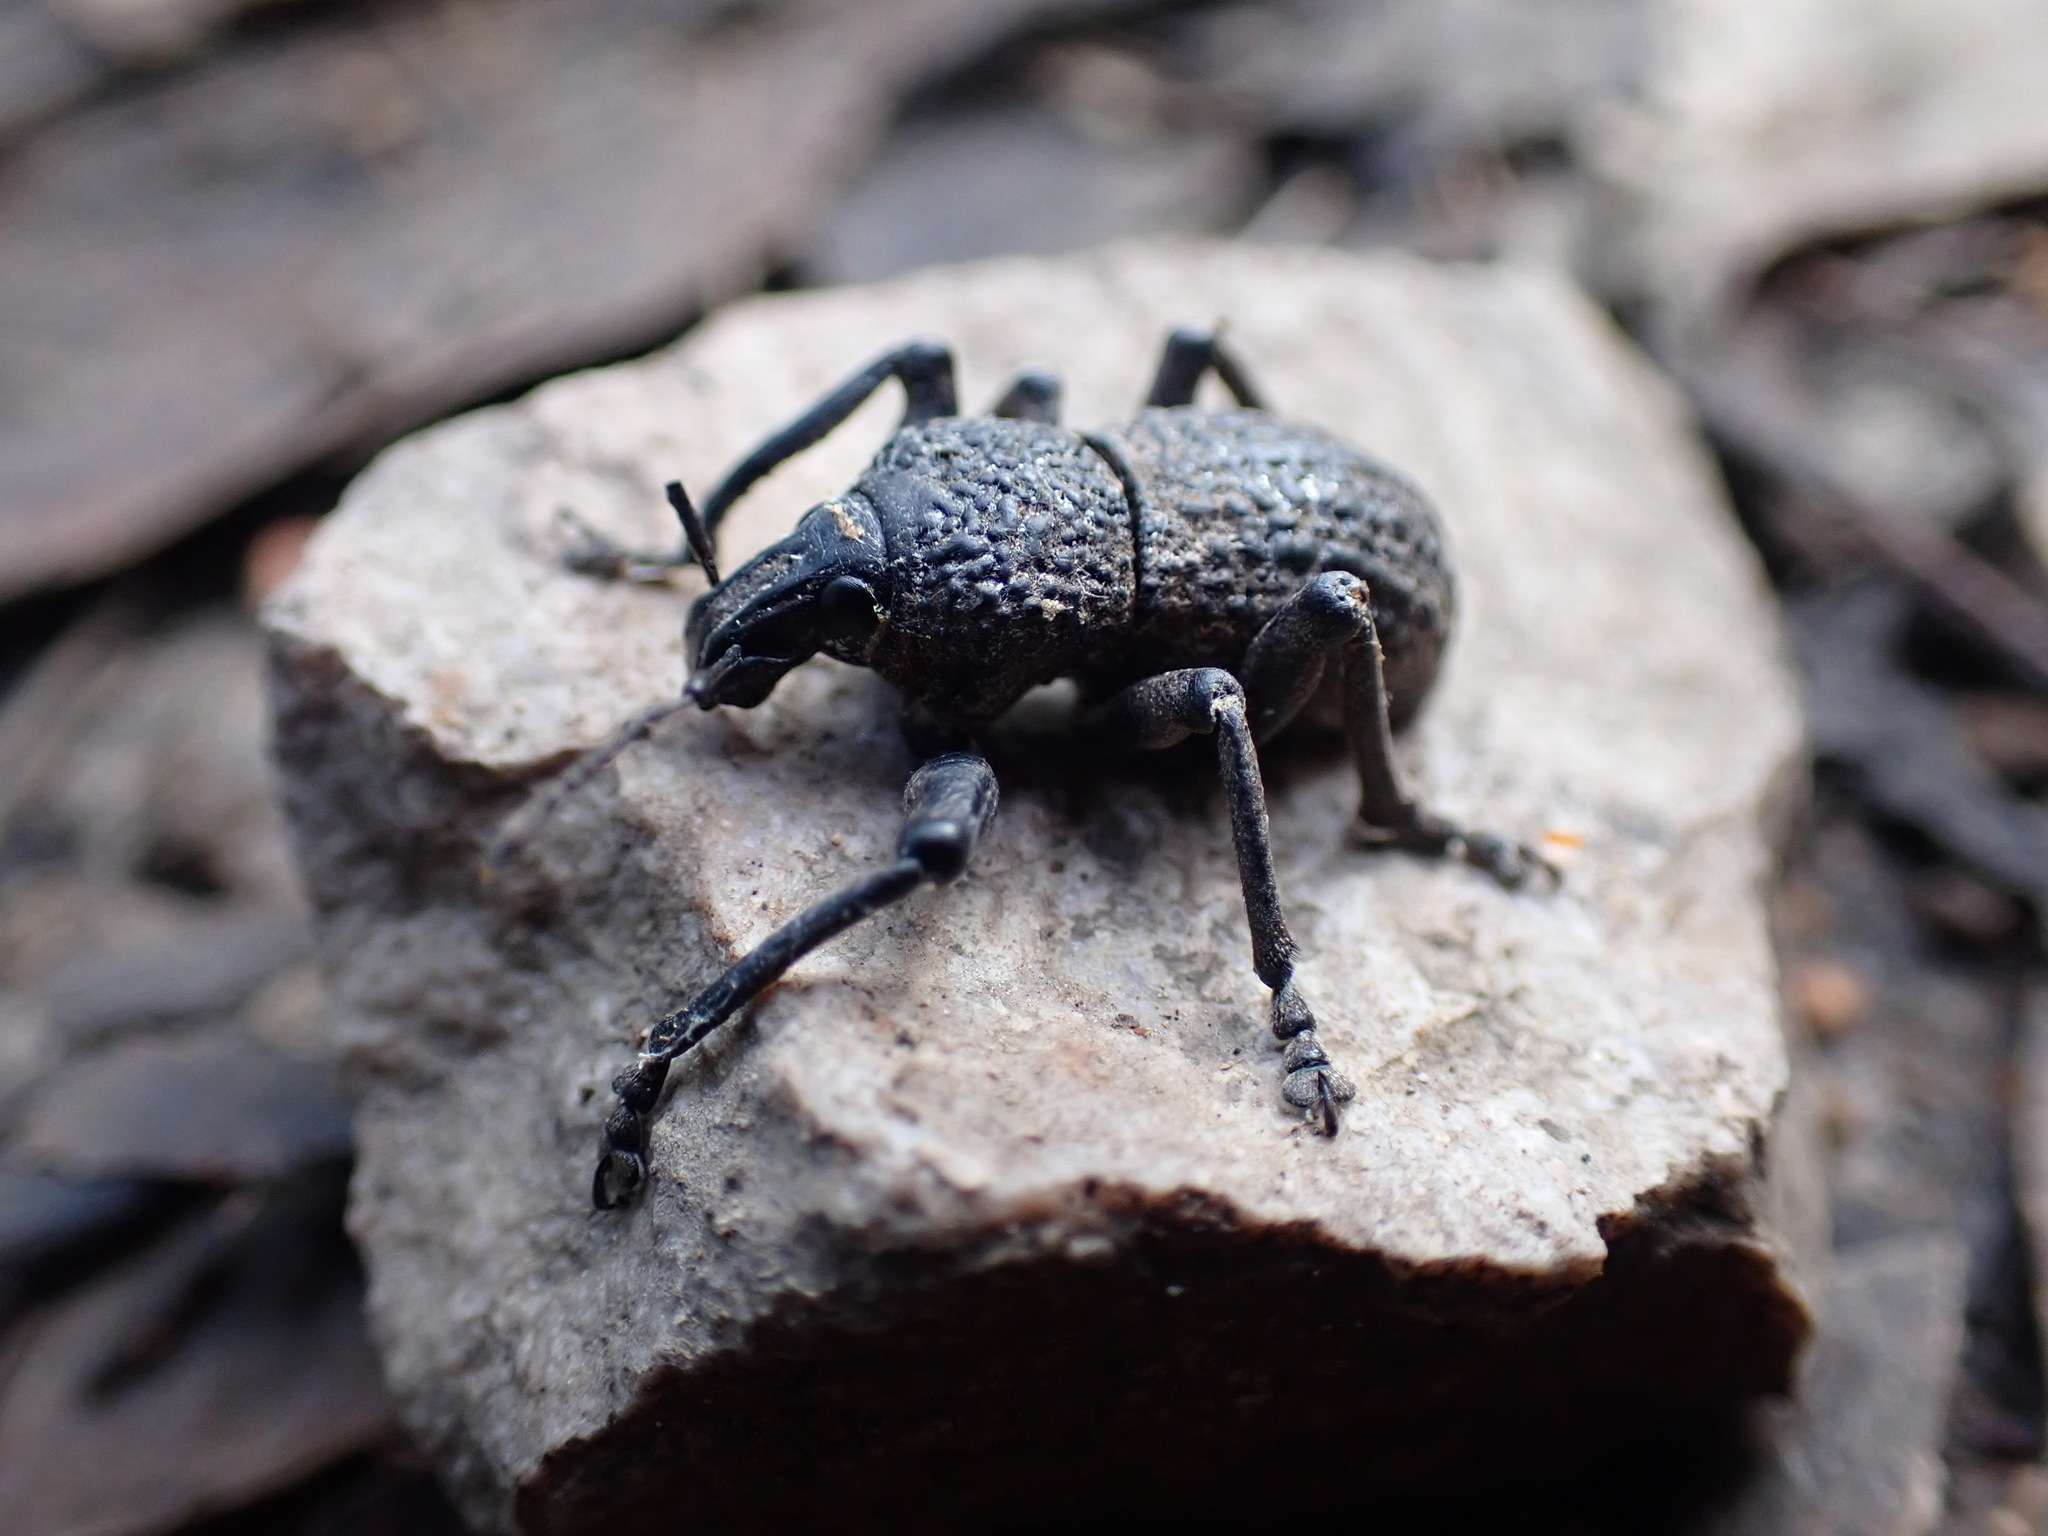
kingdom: Animalia
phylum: Arthropoda
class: Insecta
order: Coleoptera
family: Curculionidae
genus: Psapharus
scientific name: Psapharus infaustus
